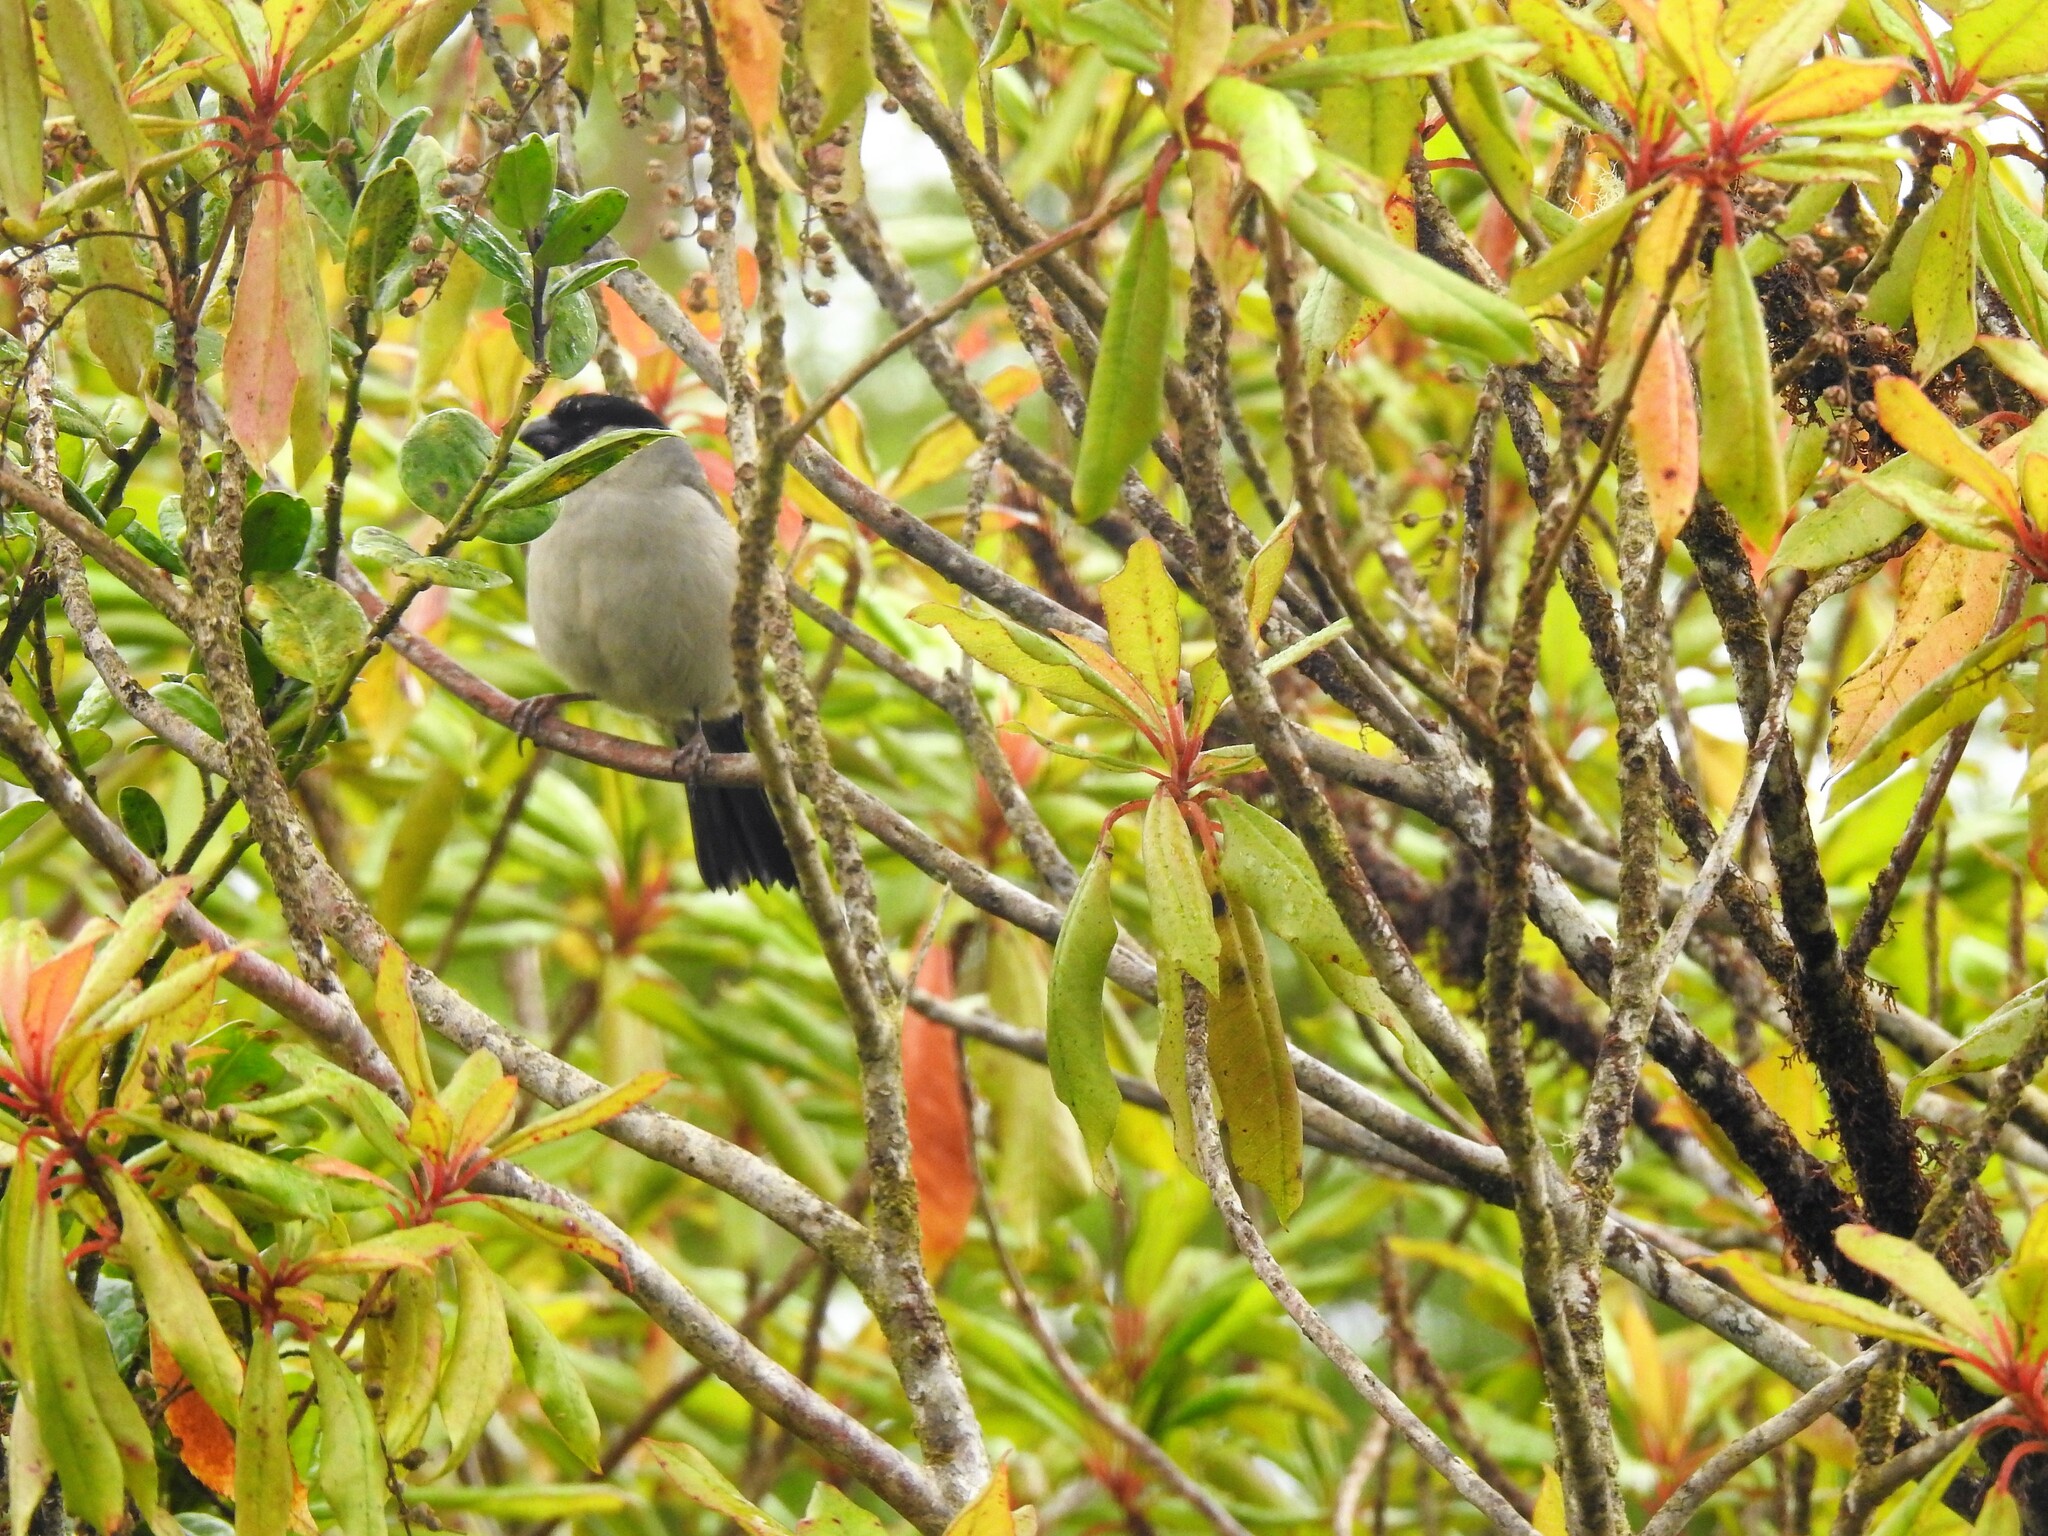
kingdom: Animalia
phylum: Chordata
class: Aves
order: Passeriformes
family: Fringillidae
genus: Pyrrhula
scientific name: Pyrrhula murina
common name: Azores bullfinch
